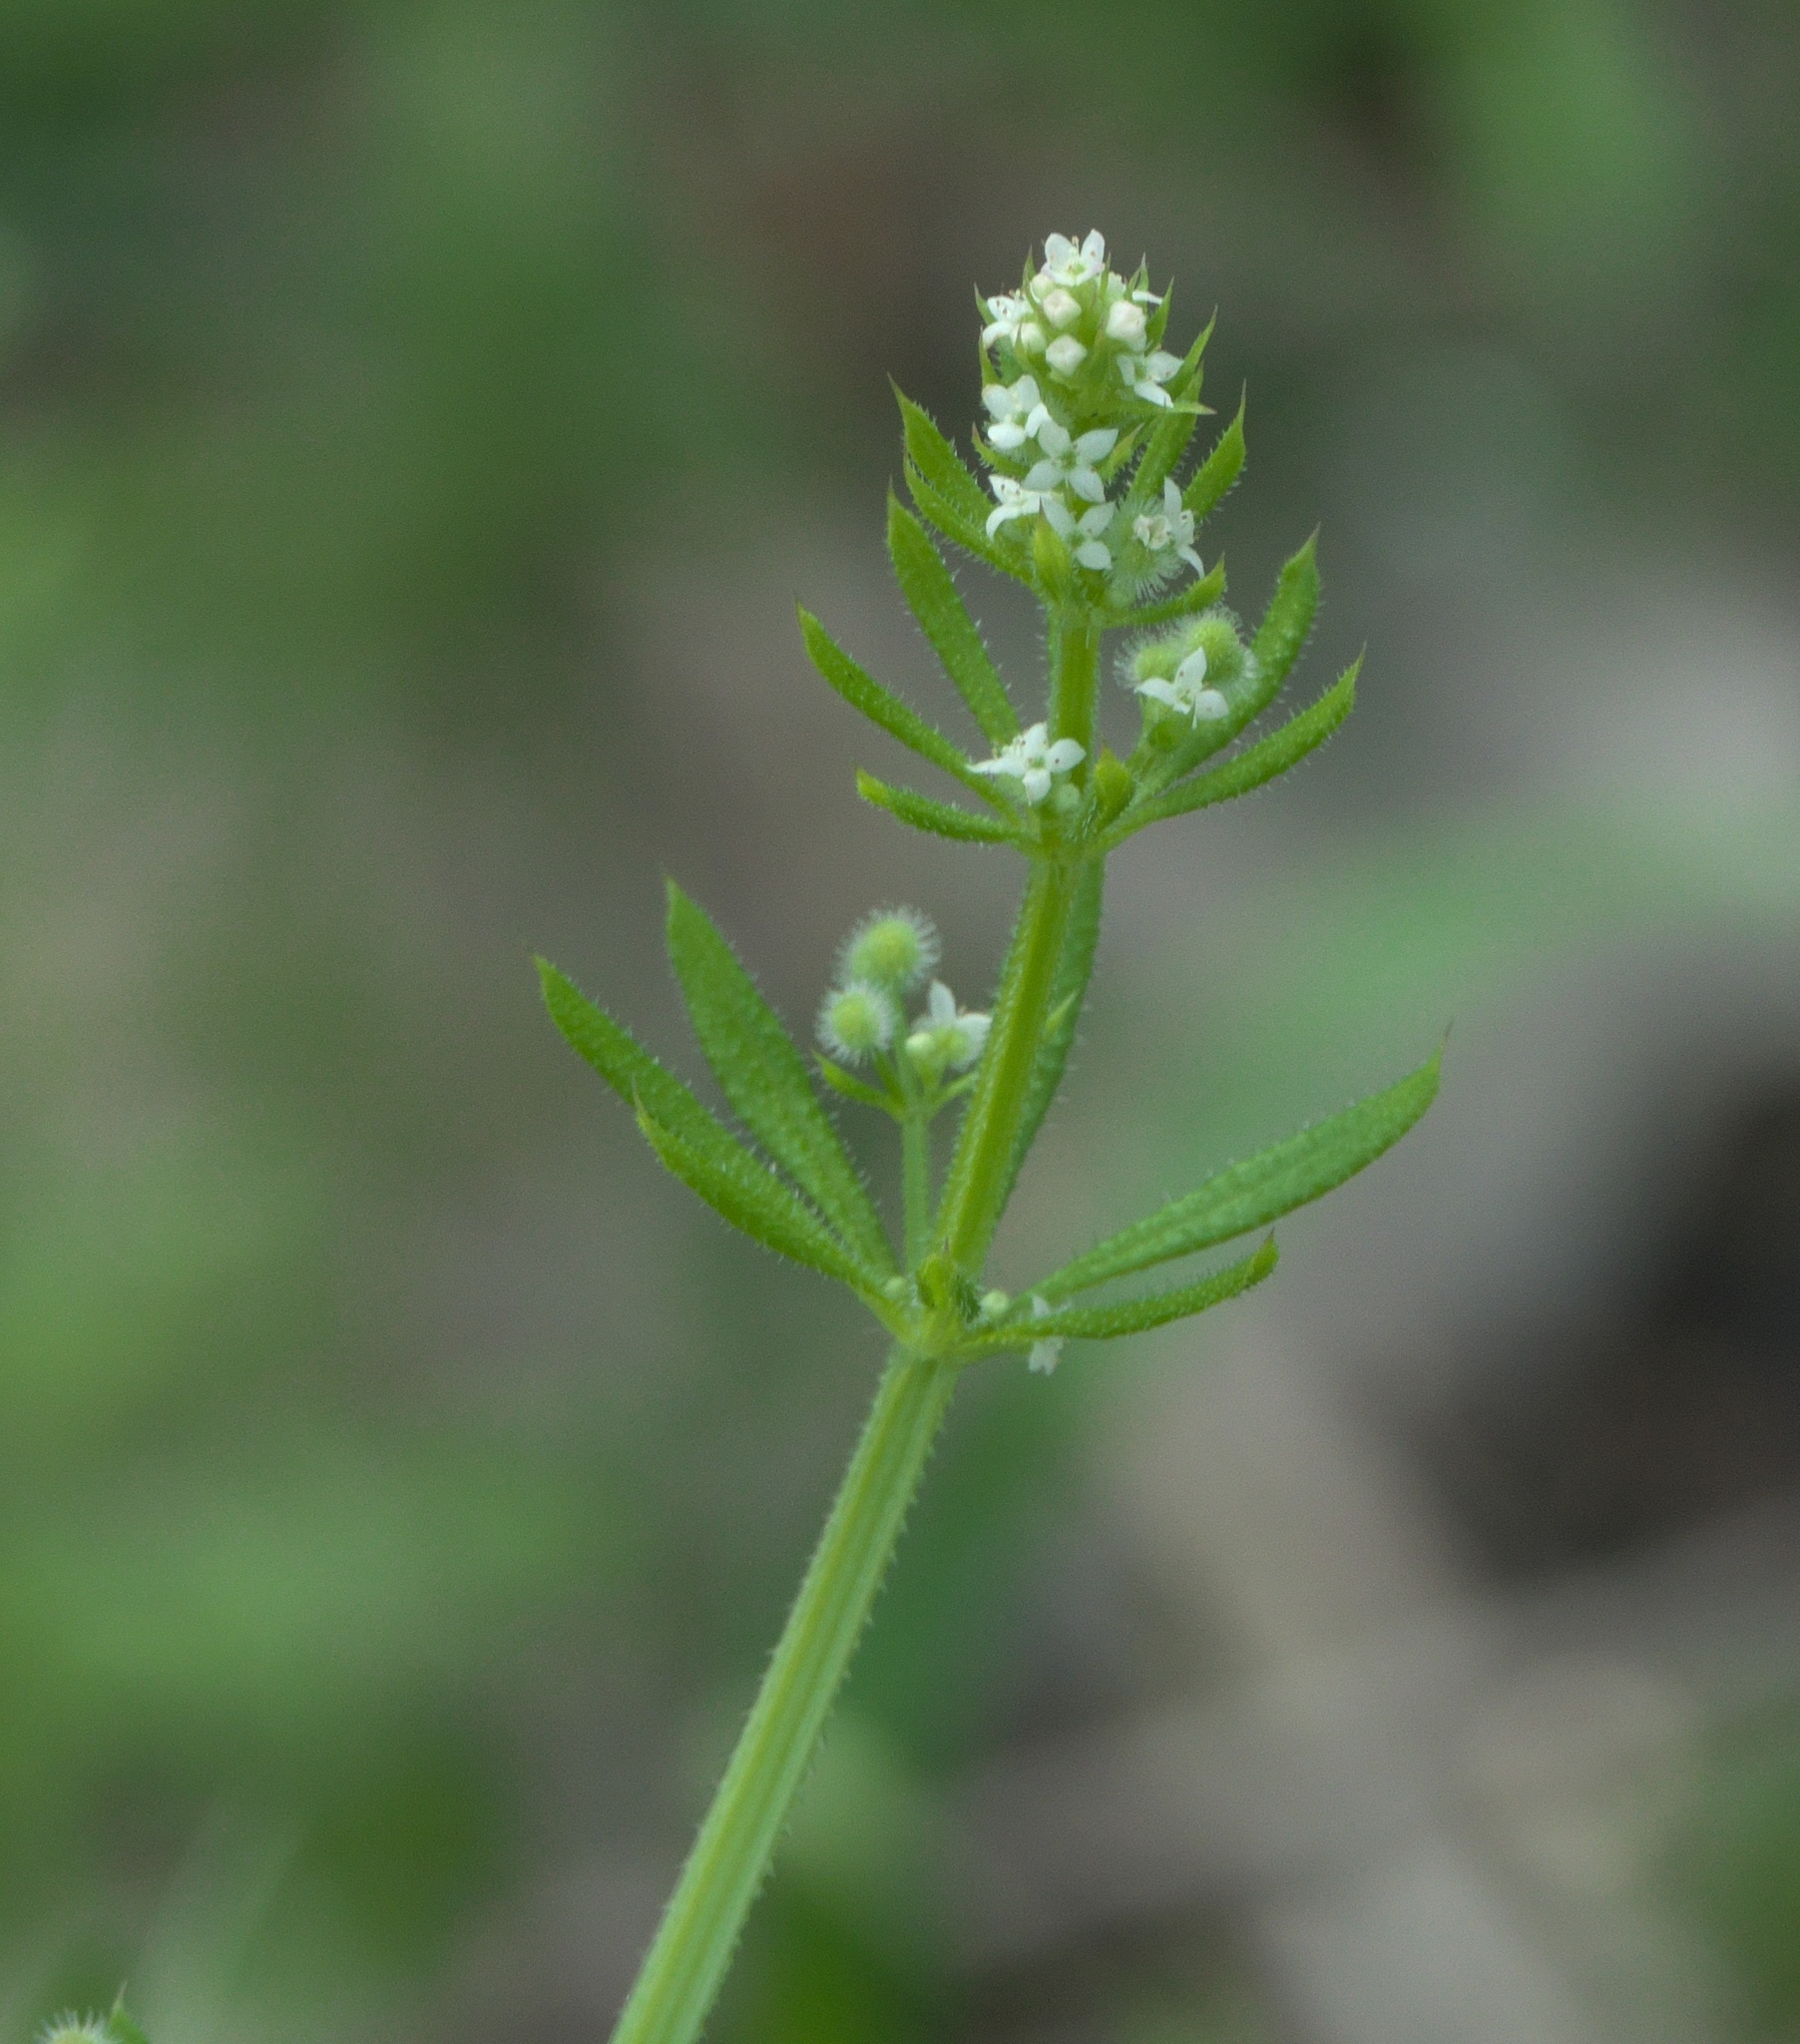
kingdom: Plantae
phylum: Tracheophyta
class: Magnoliopsida
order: Gentianales
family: Rubiaceae
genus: Galium
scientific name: Galium aparine
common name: Cleavers
